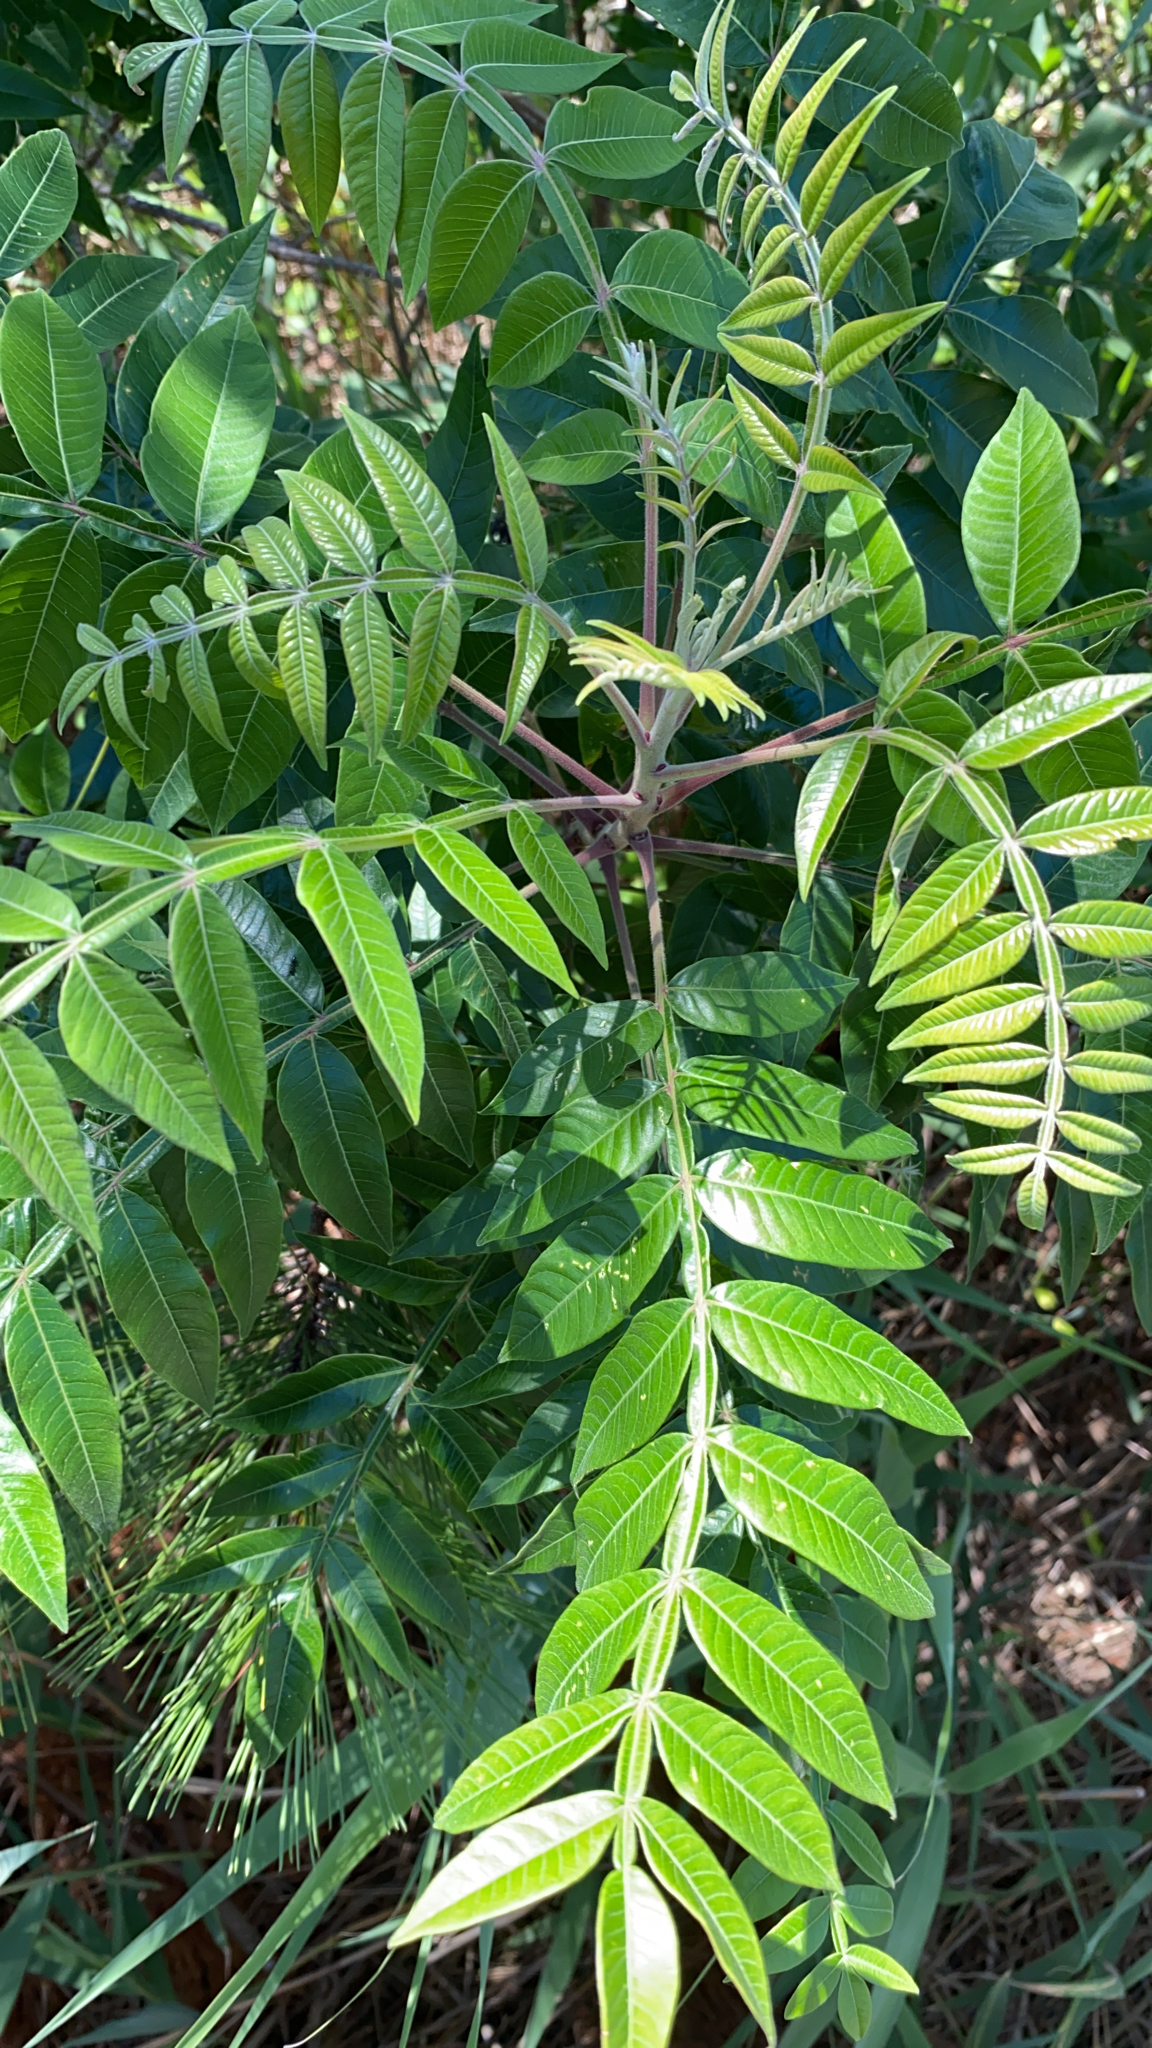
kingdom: Plantae
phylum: Tracheophyta
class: Magnoliopsida
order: Sapindales
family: Anacardiaceae
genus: Rhus
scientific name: Rhus copallina
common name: Shining sumac
